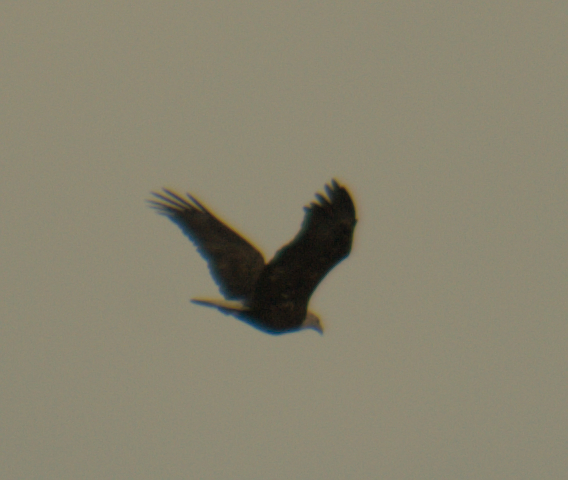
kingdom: Animalia
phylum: Chordata
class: Aves
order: Accipitriformes
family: Accipitridae
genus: Haliaeetus
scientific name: Haliaeetus leucocephalus
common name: Bald eagle
